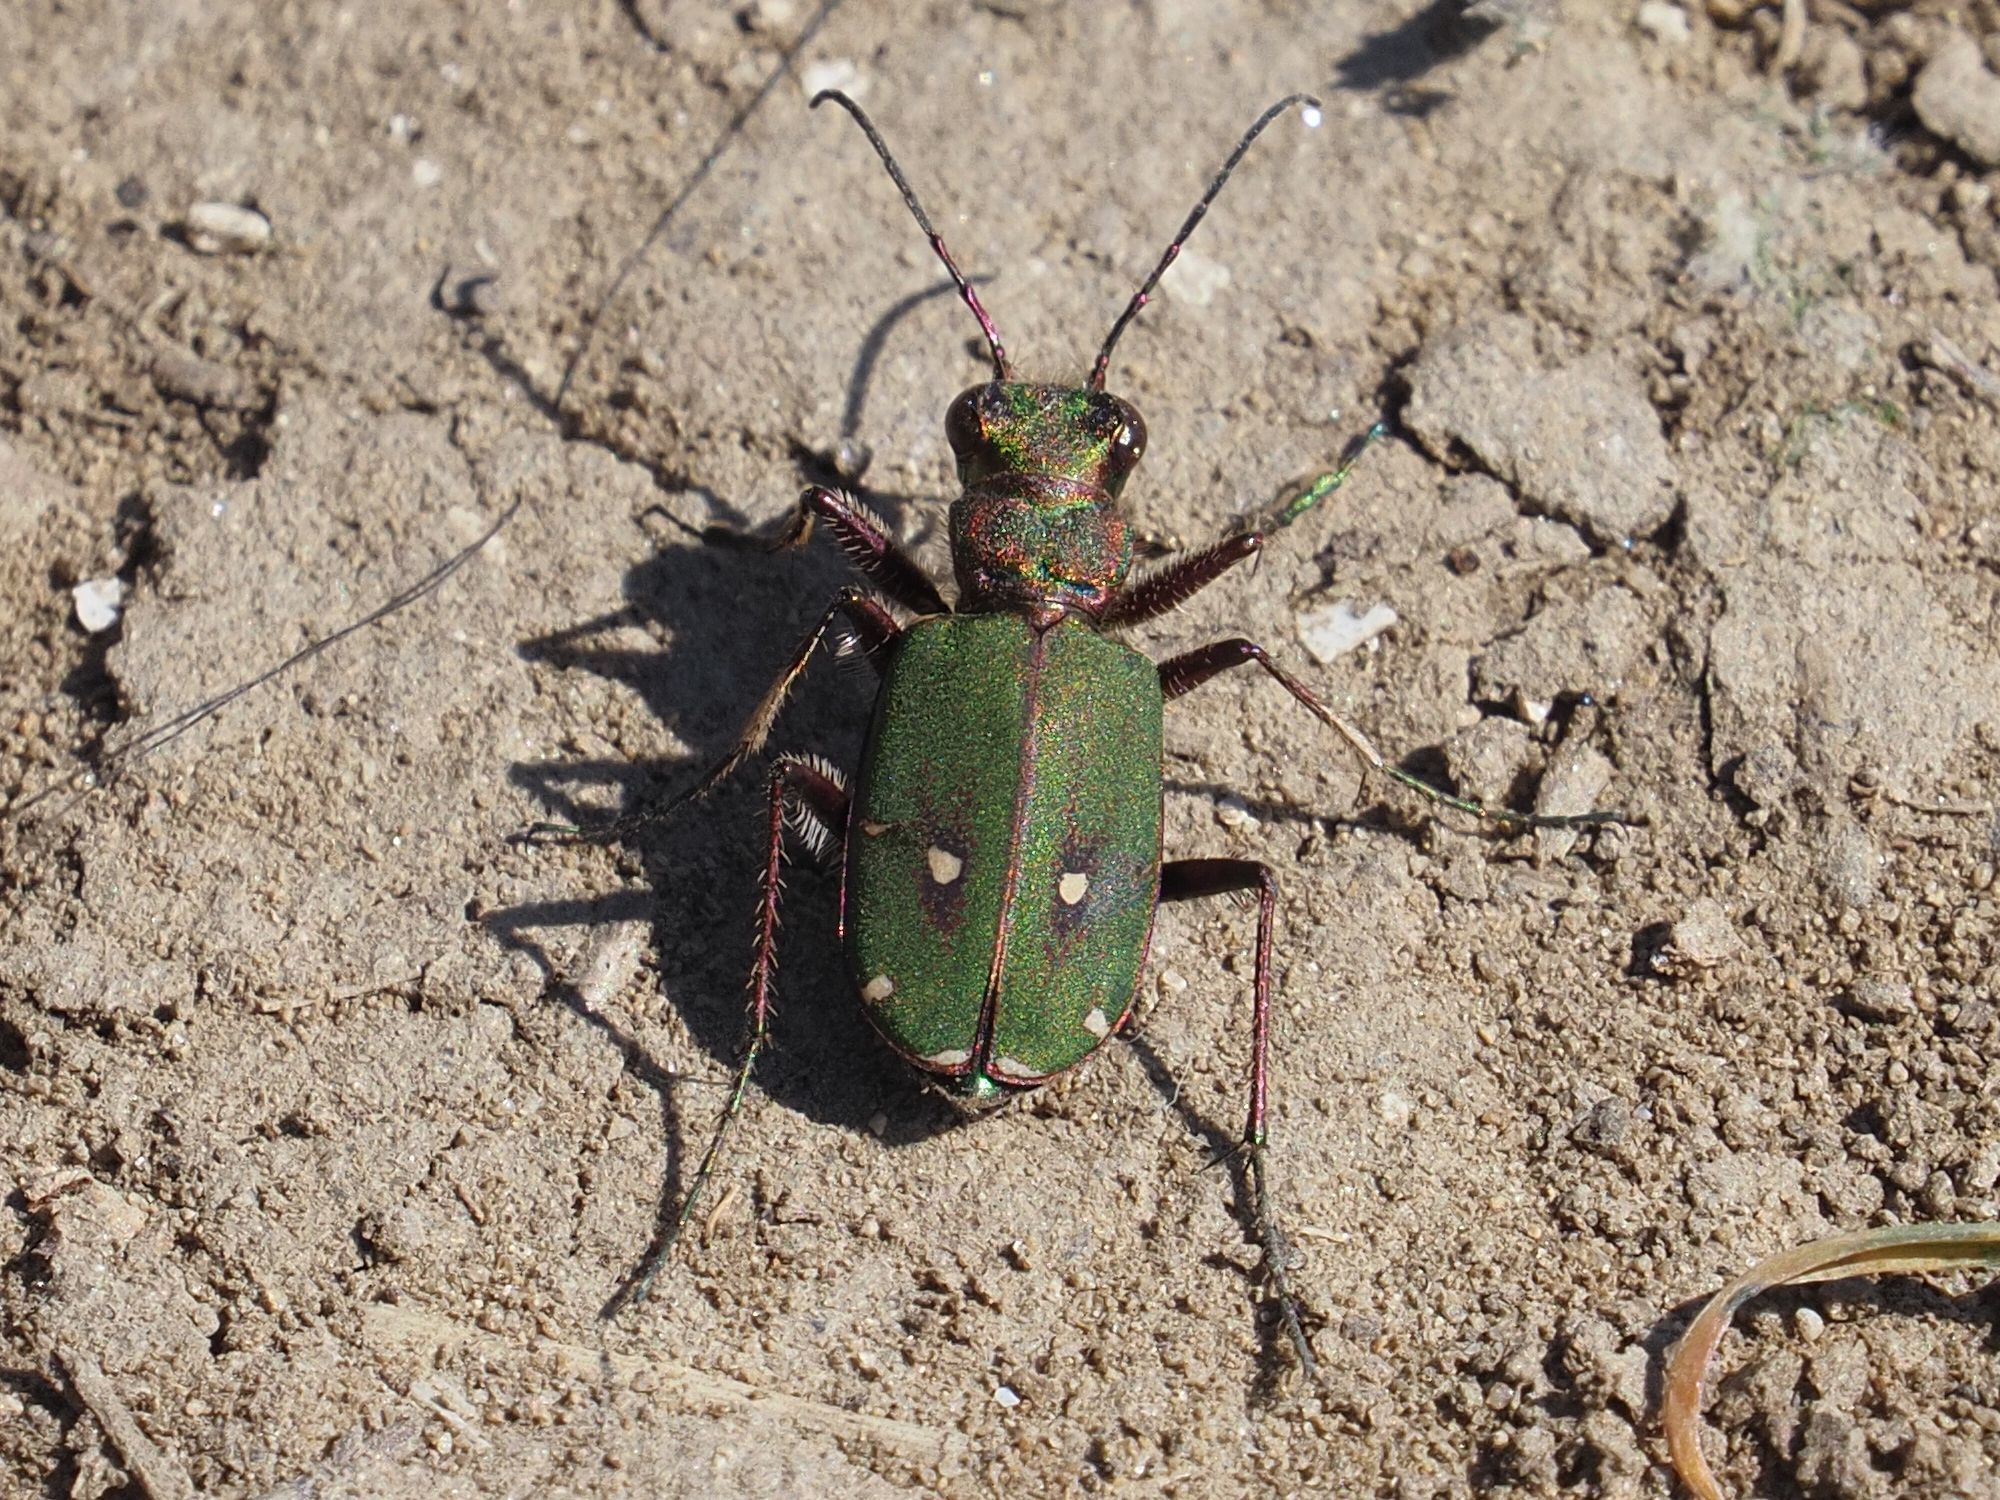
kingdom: Animalia
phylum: Arthropoda
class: Insecta
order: Coleoptera
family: Carabidae
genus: Cicindela
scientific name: Cicindela campestris
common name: Common tiger beetle
